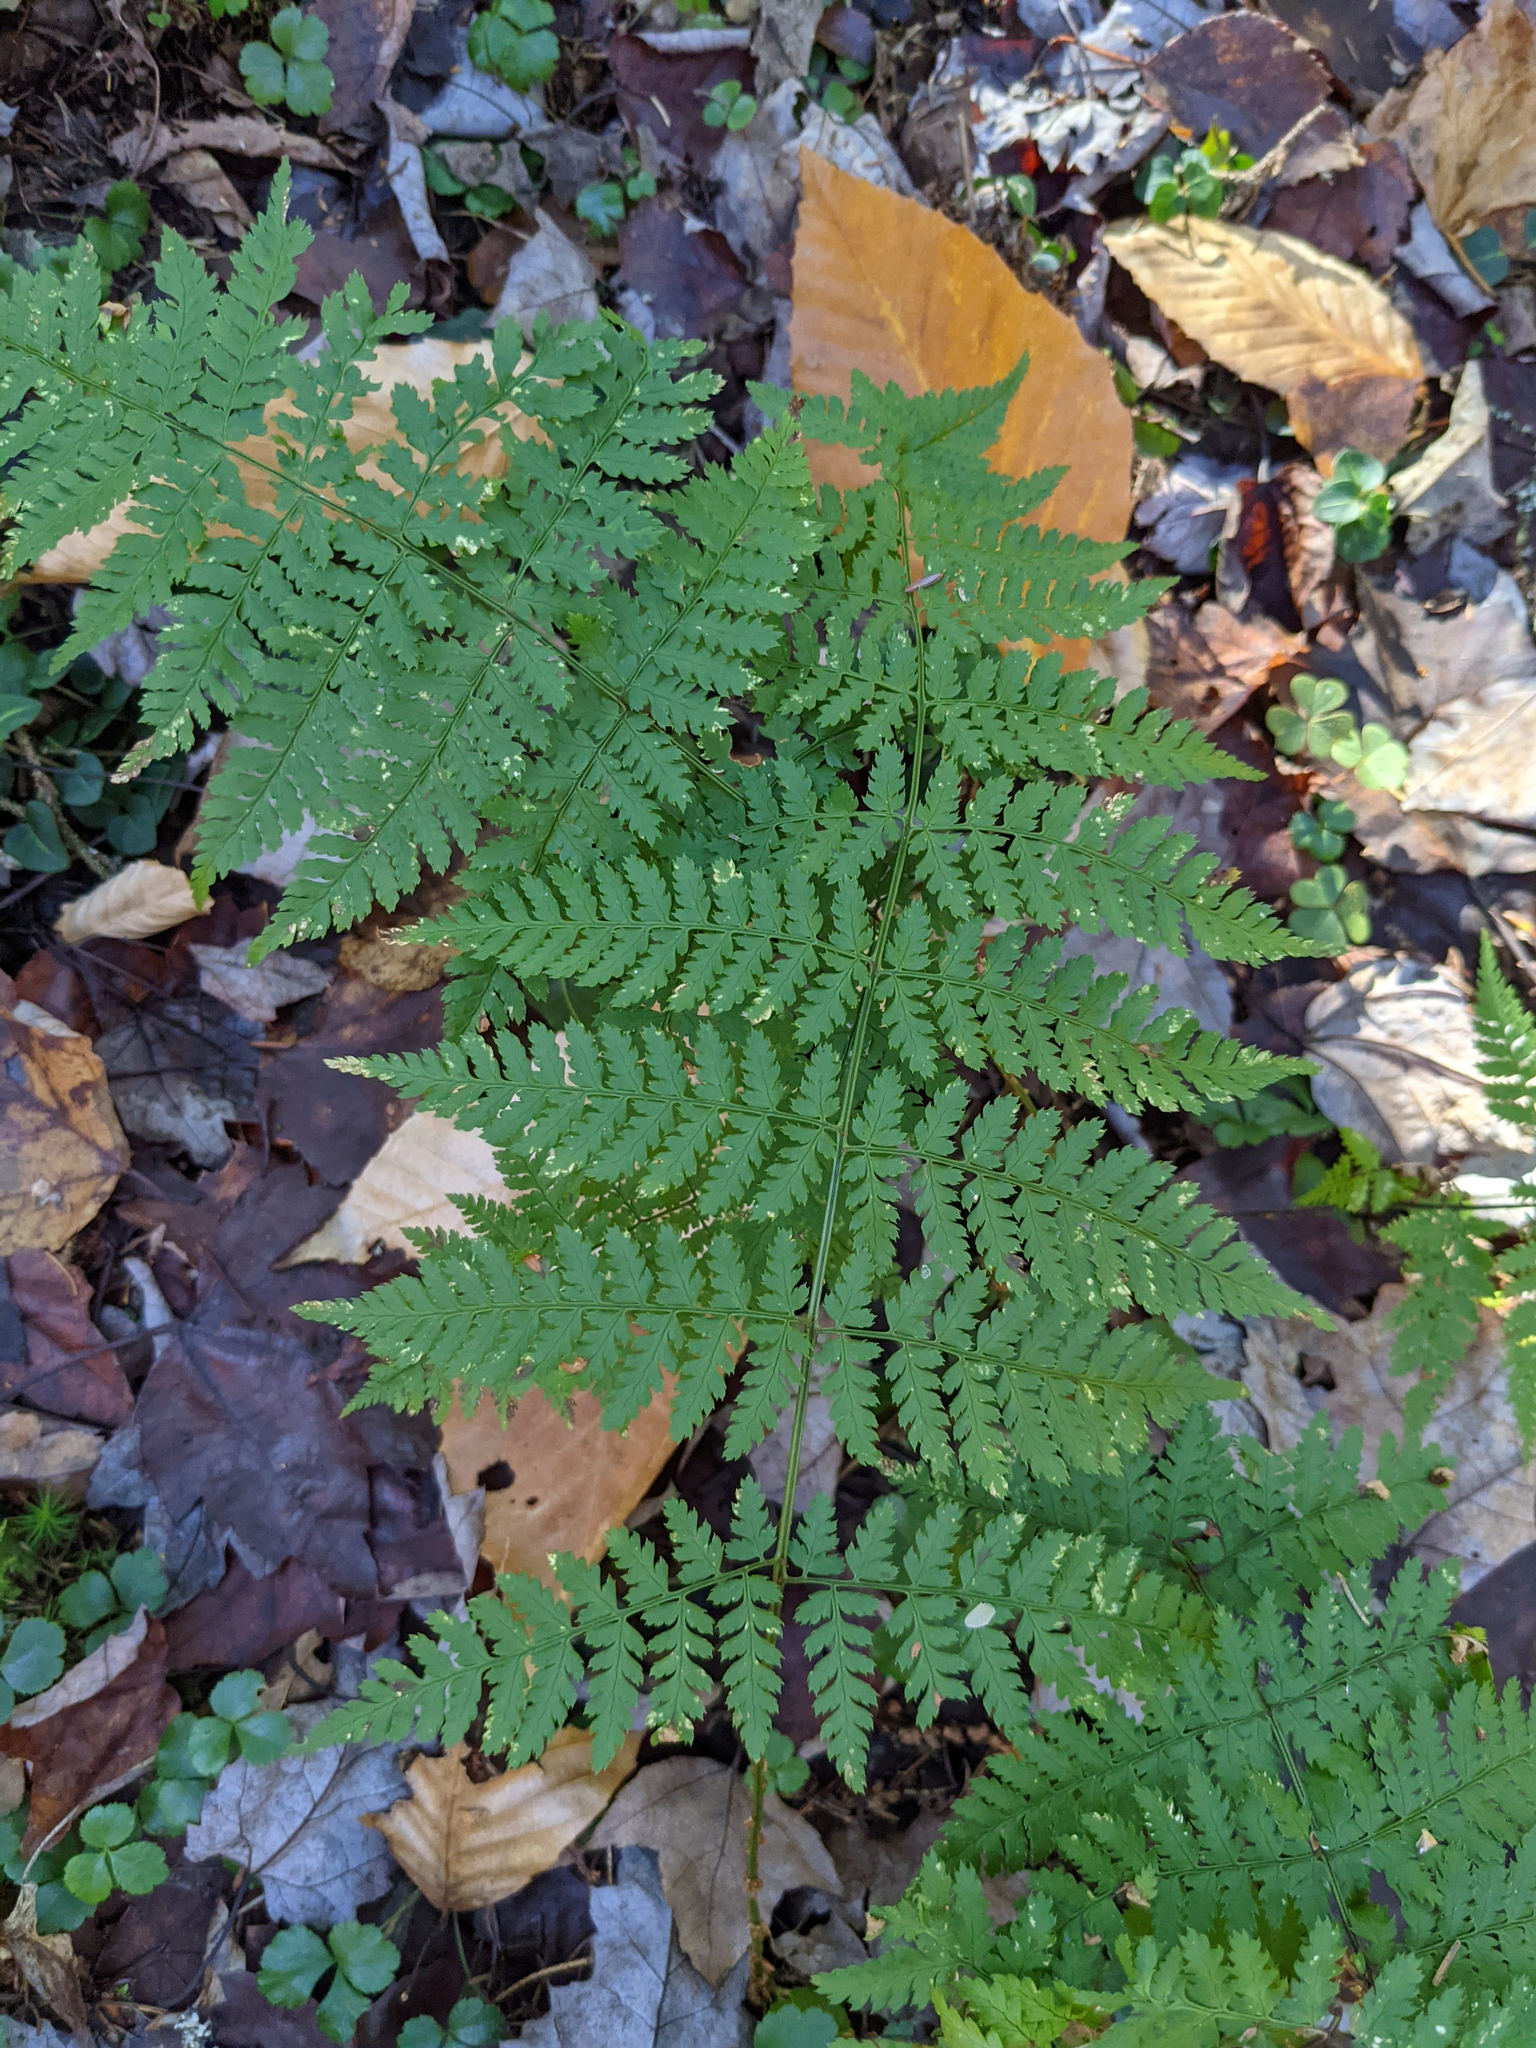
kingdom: Plantae
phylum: Tracheophyta
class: Polypodiopsida
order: Polypodiales
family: Dryopteridaceae
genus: Dryopteris
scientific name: Dryopteris intermedia
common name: Evergreen wood fern
